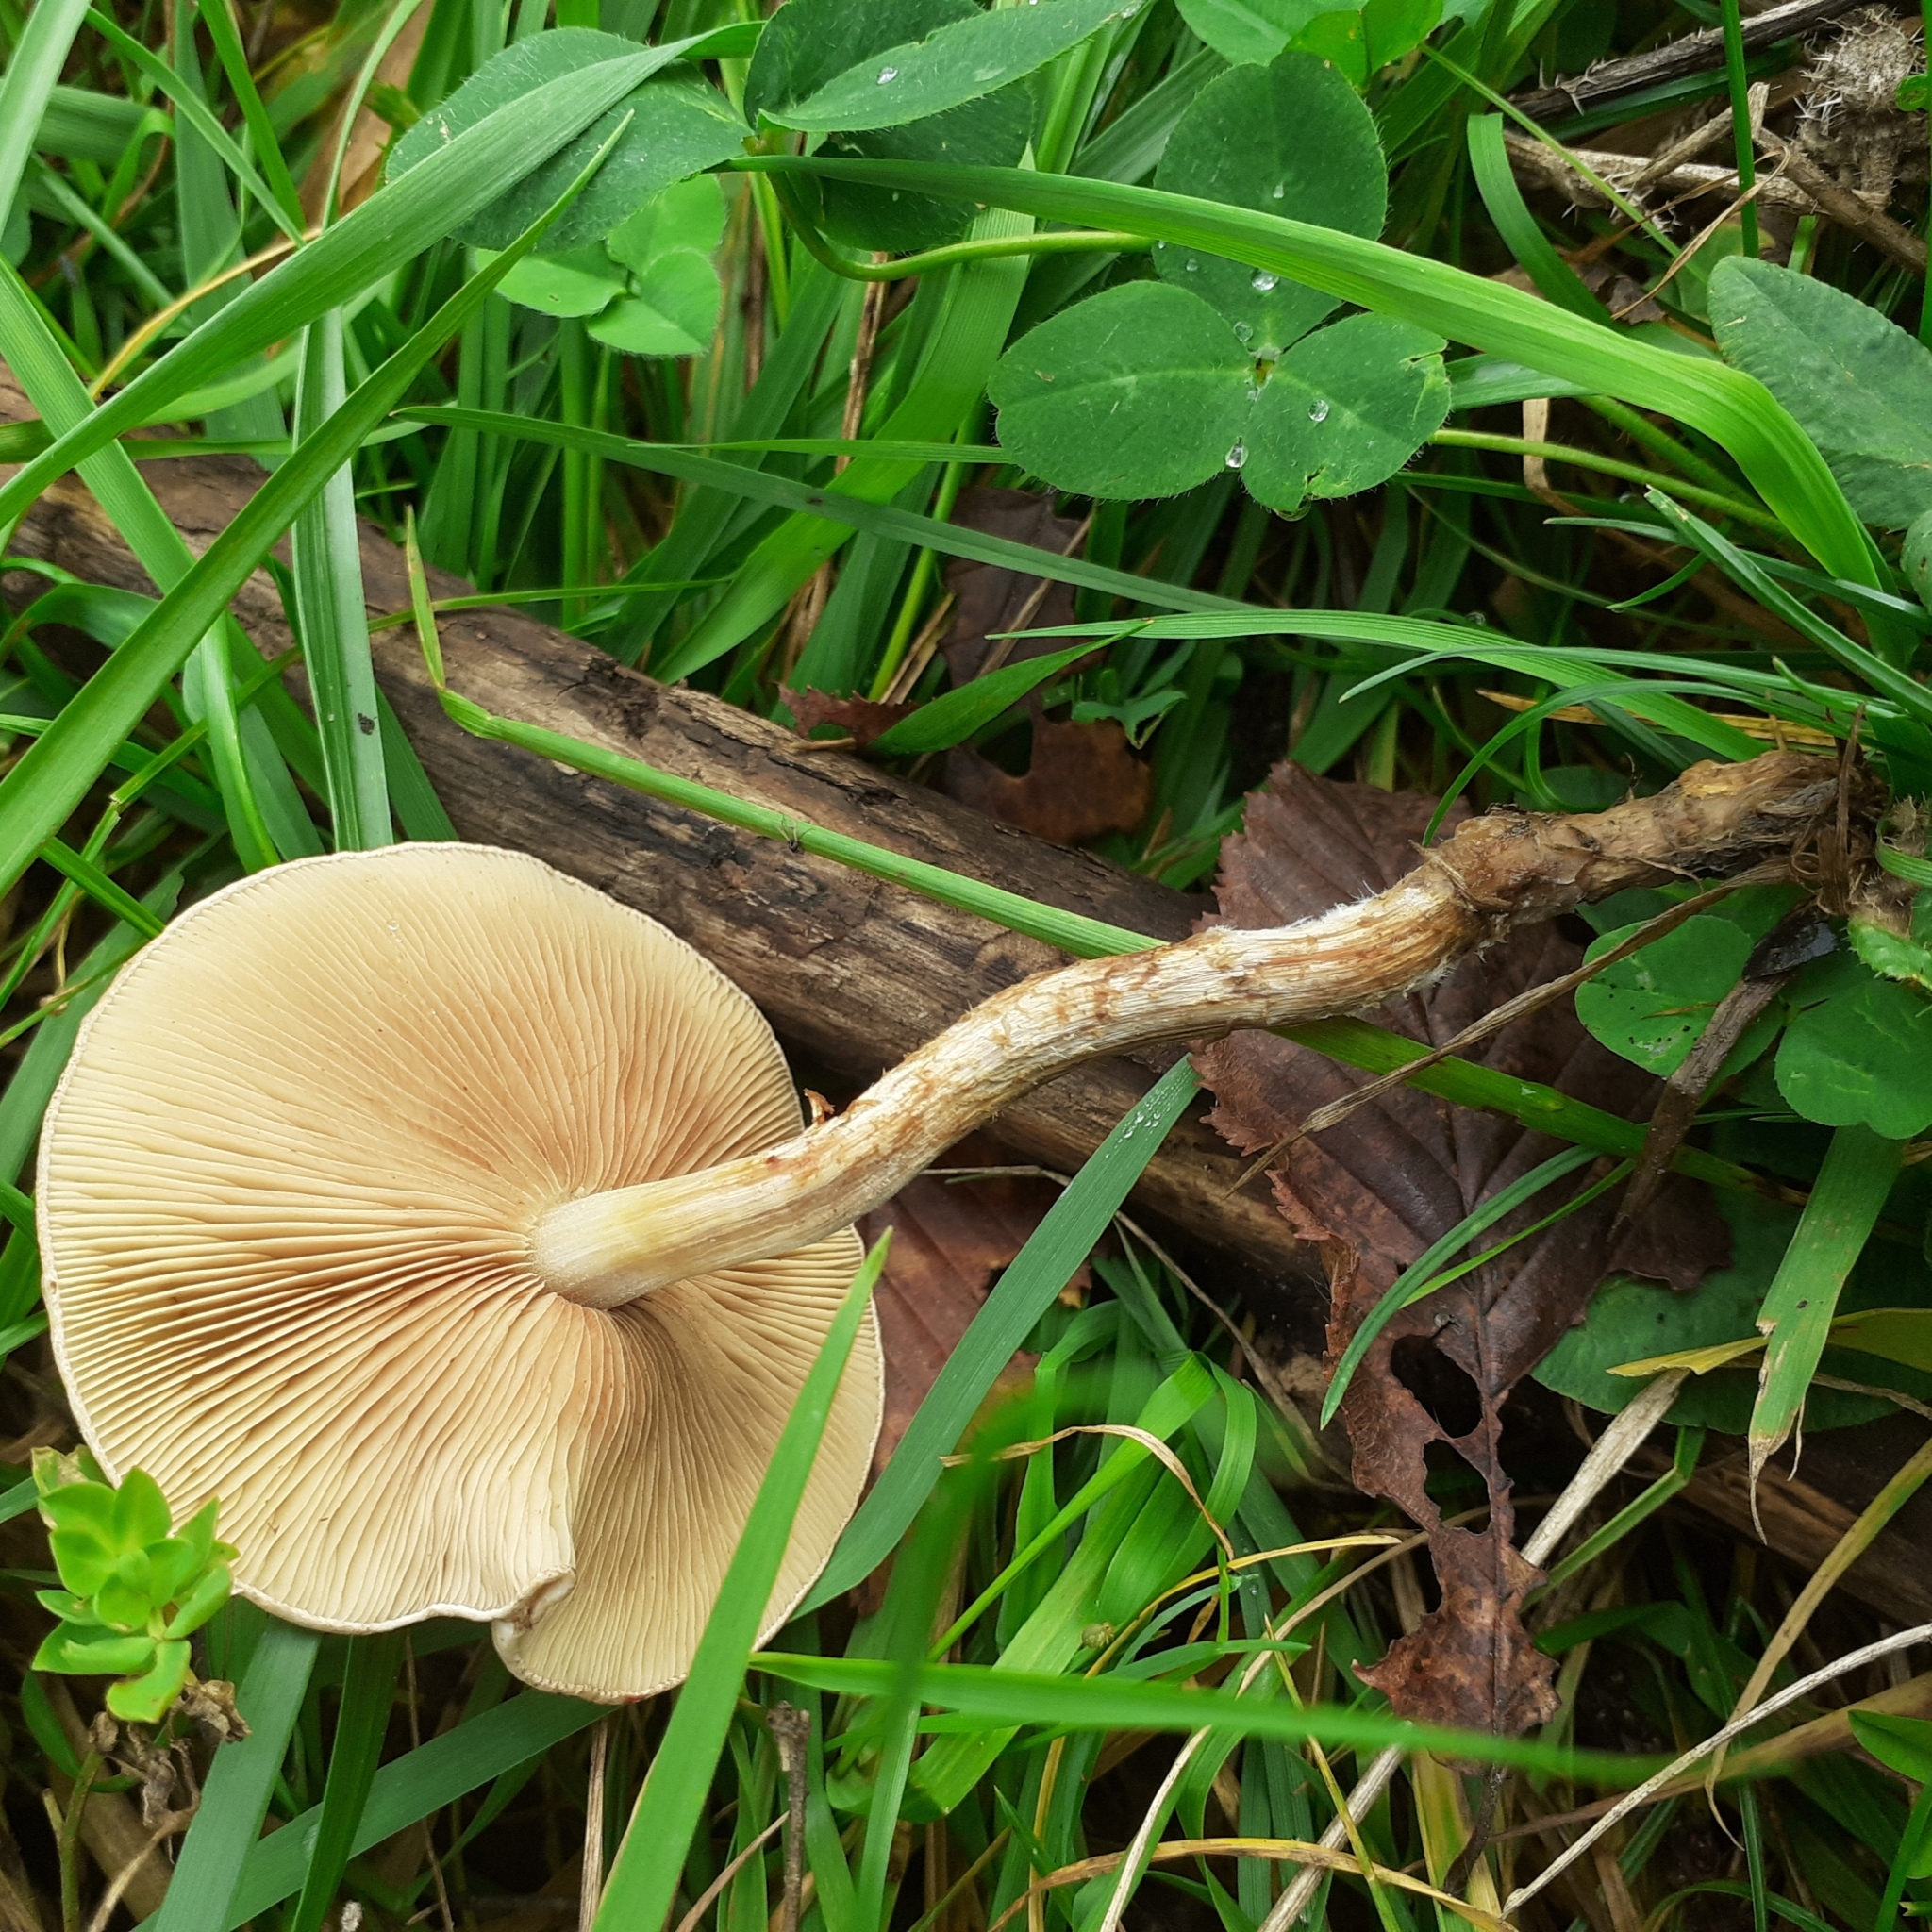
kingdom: Fungi
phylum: Basidiomycota
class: Agaricomycetes
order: Agaricales
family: Strophariaceae
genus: Pholiota
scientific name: Pholiota gummosa
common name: Sticky scalycap
